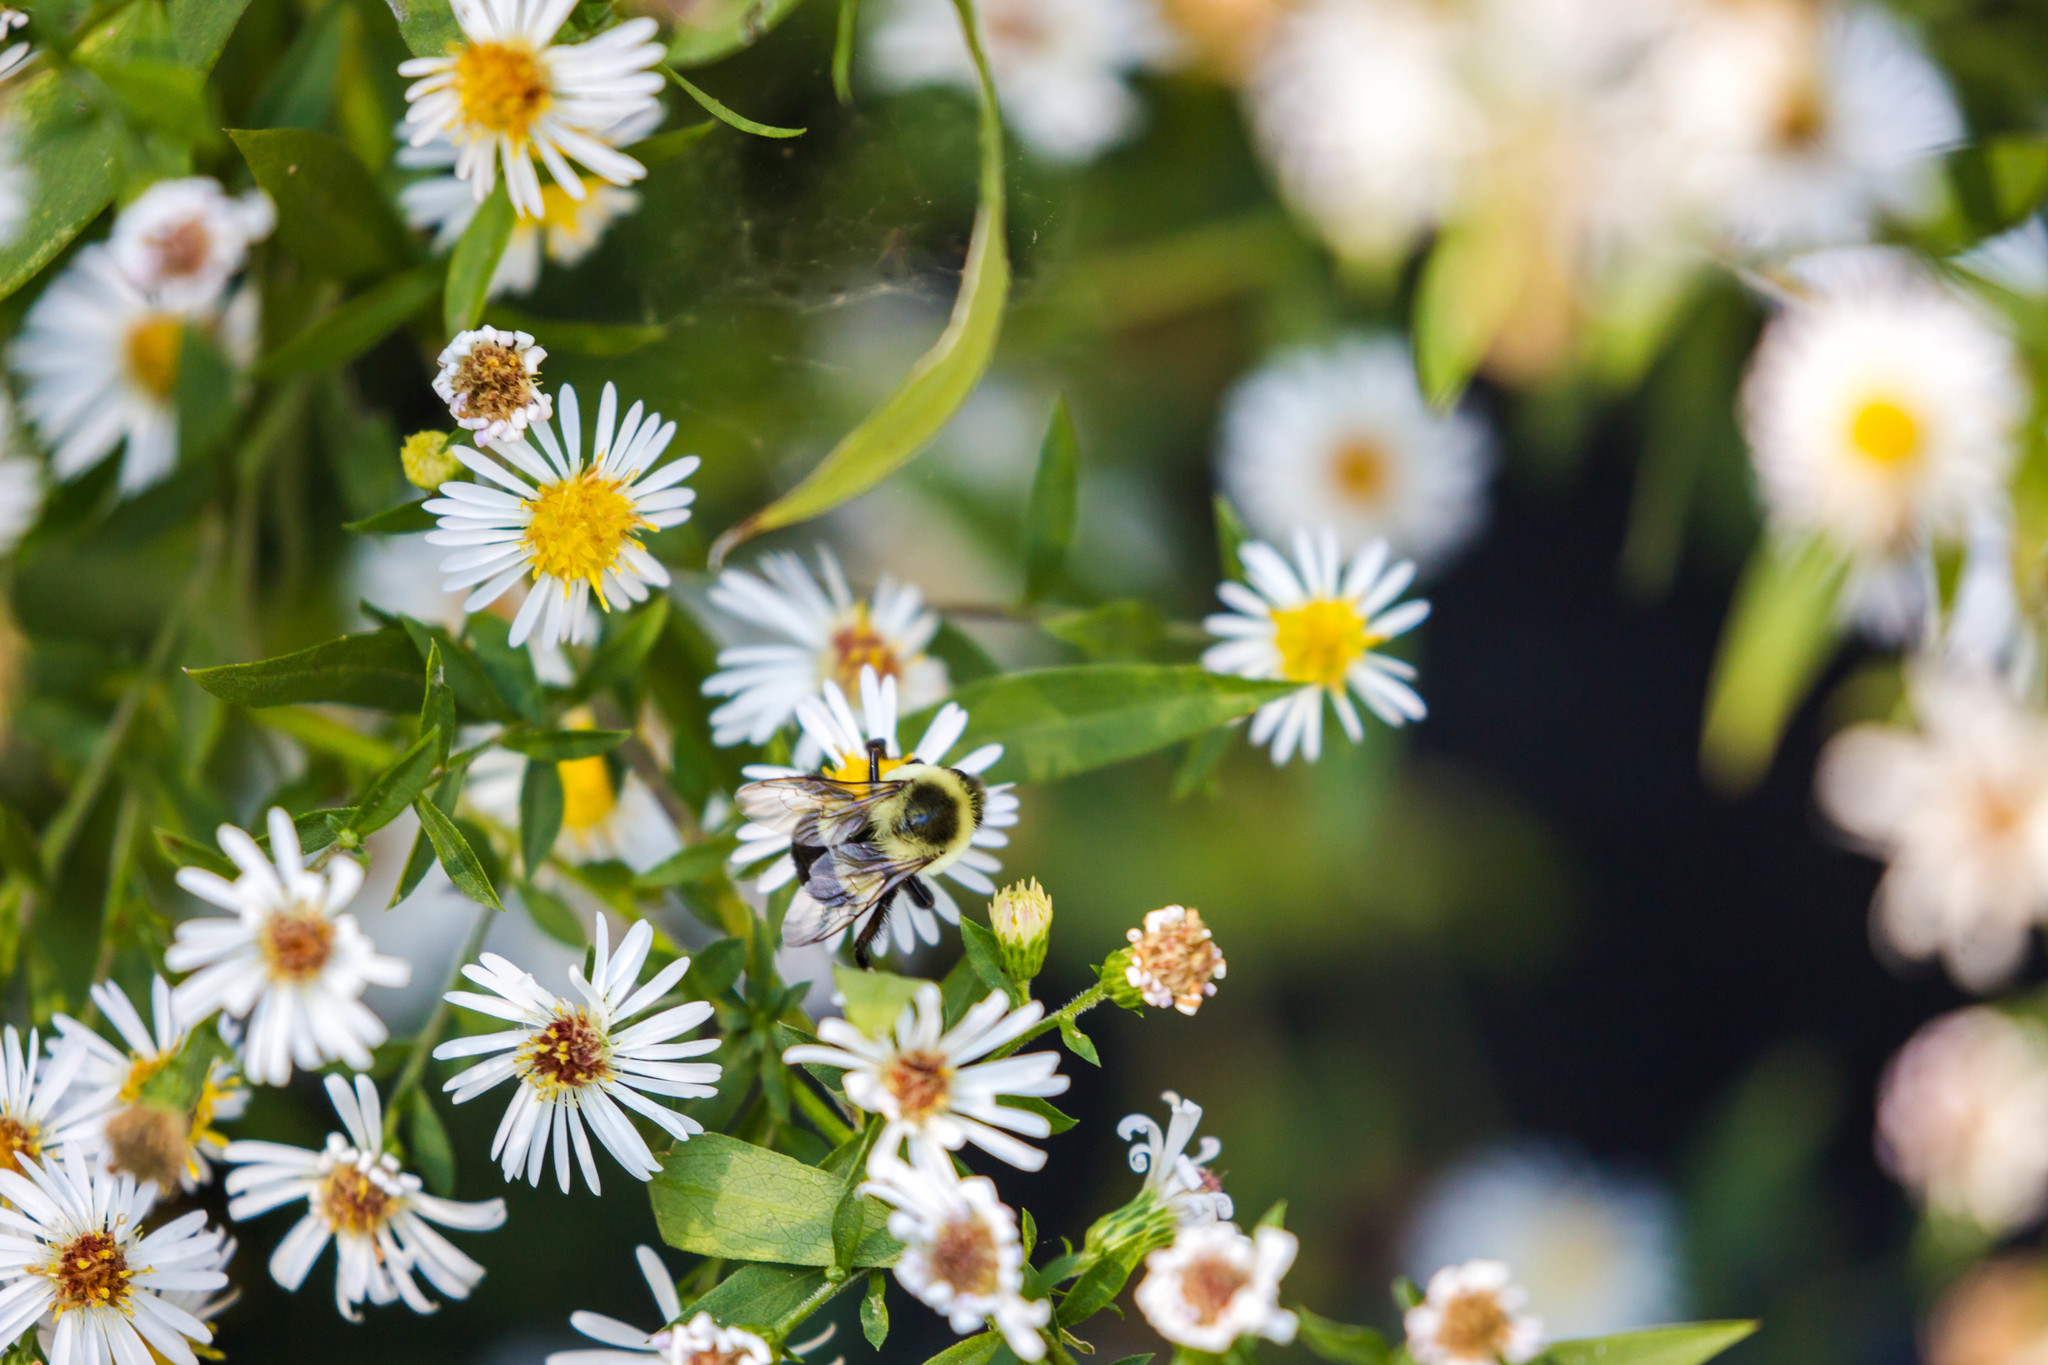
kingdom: Animalia
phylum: Arthropoda
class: Insecta
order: Hymenoptera
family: Apidae
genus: Bombus
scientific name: Bombus impatiens
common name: Common eastern bumble bee
